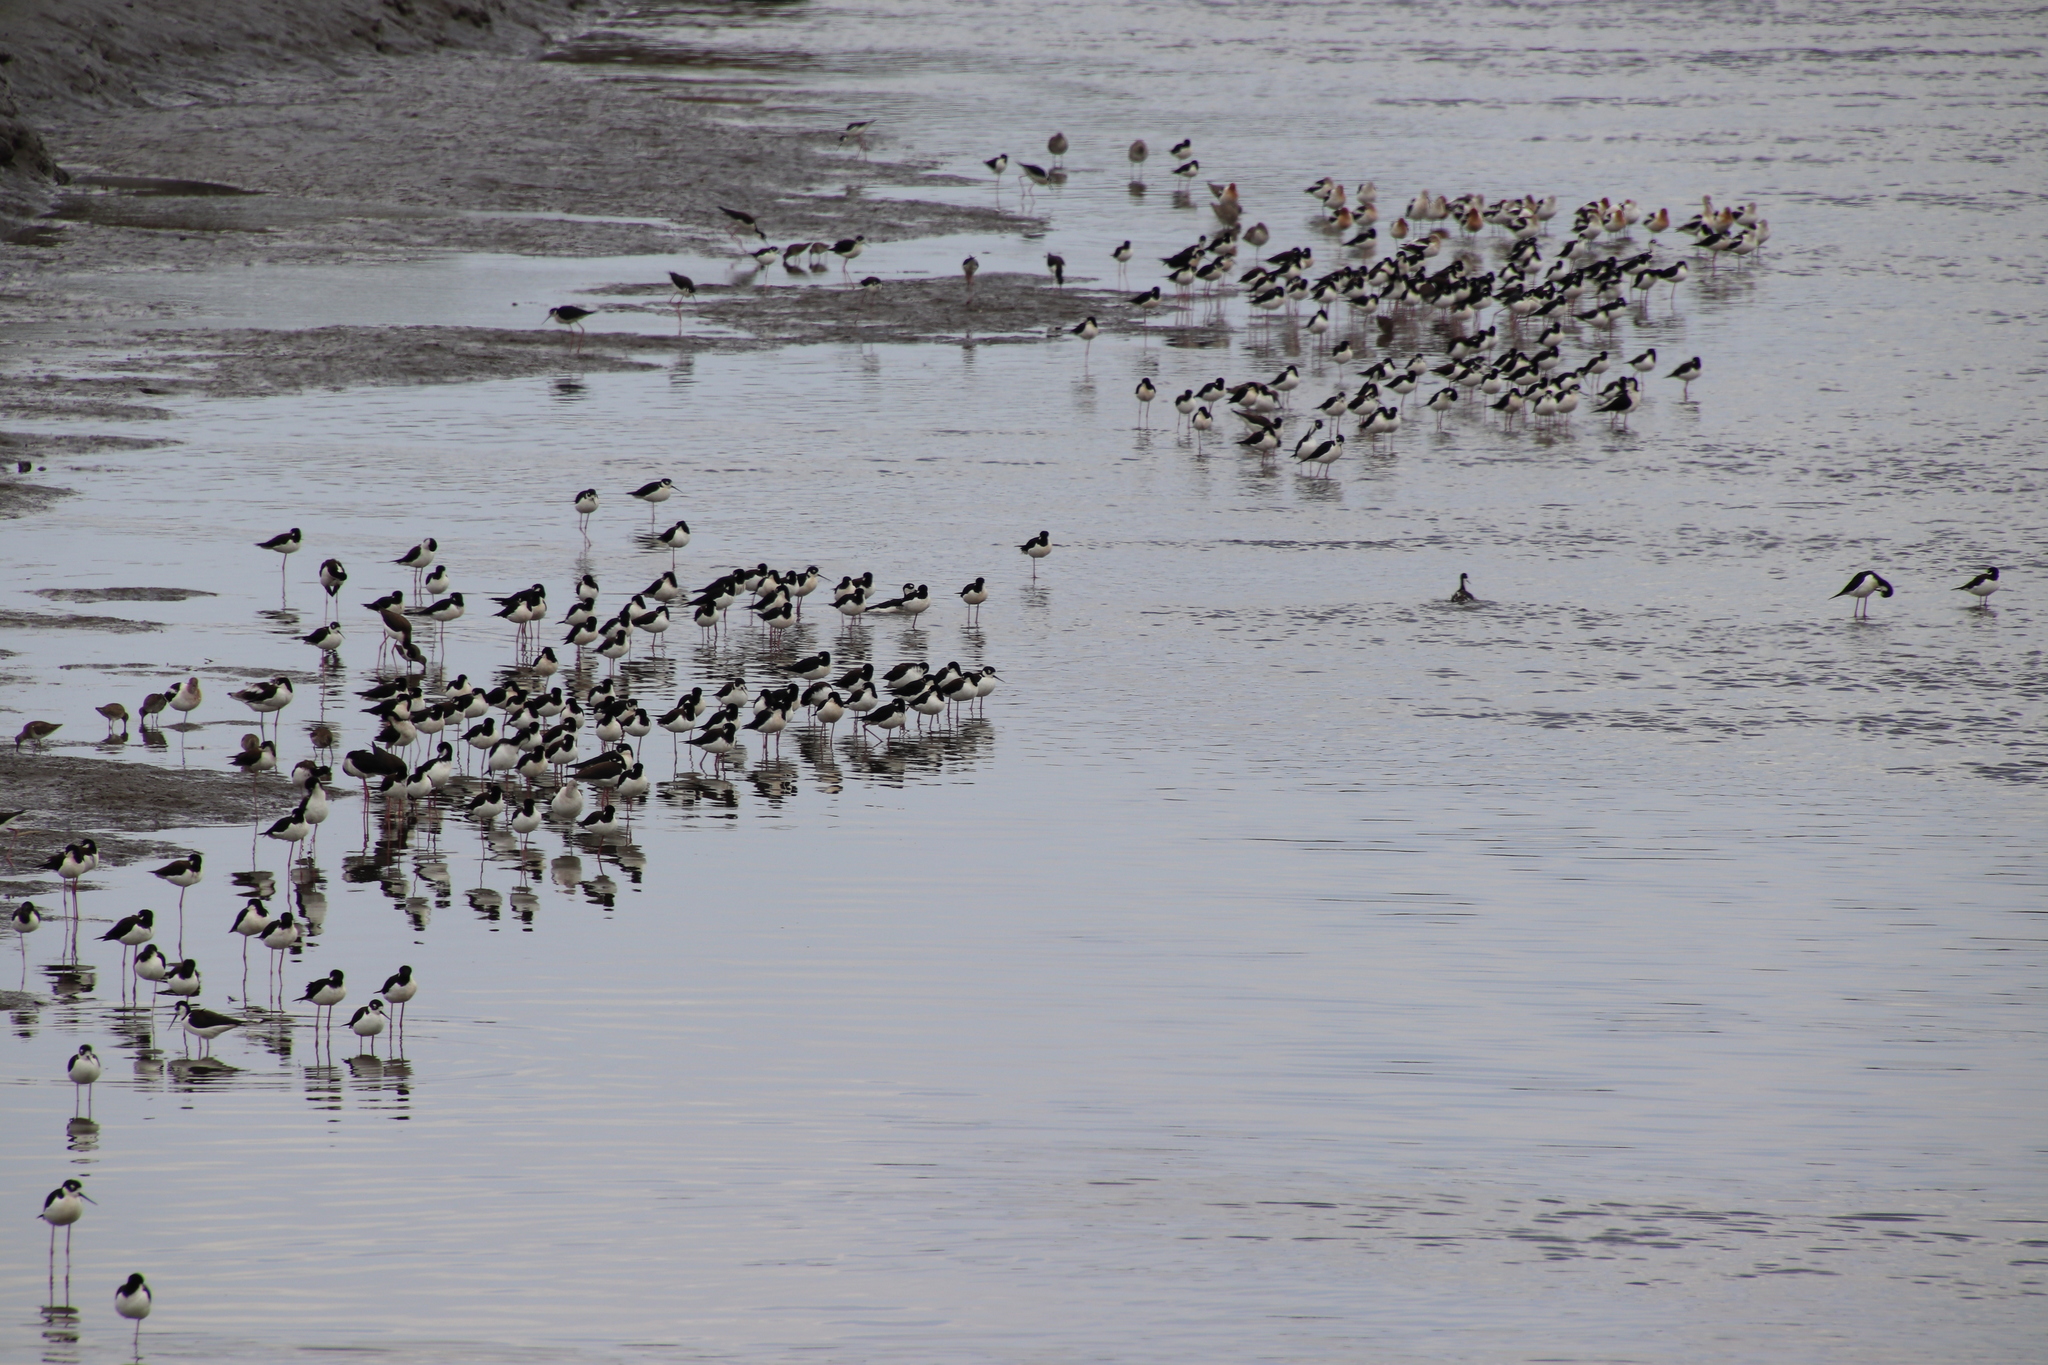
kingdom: Animalia
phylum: Chordata
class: Aves
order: Charadriiformes
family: Recurvirostridae
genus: Himantopus
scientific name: Himantopus mexicanus
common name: Black-necked stilt
